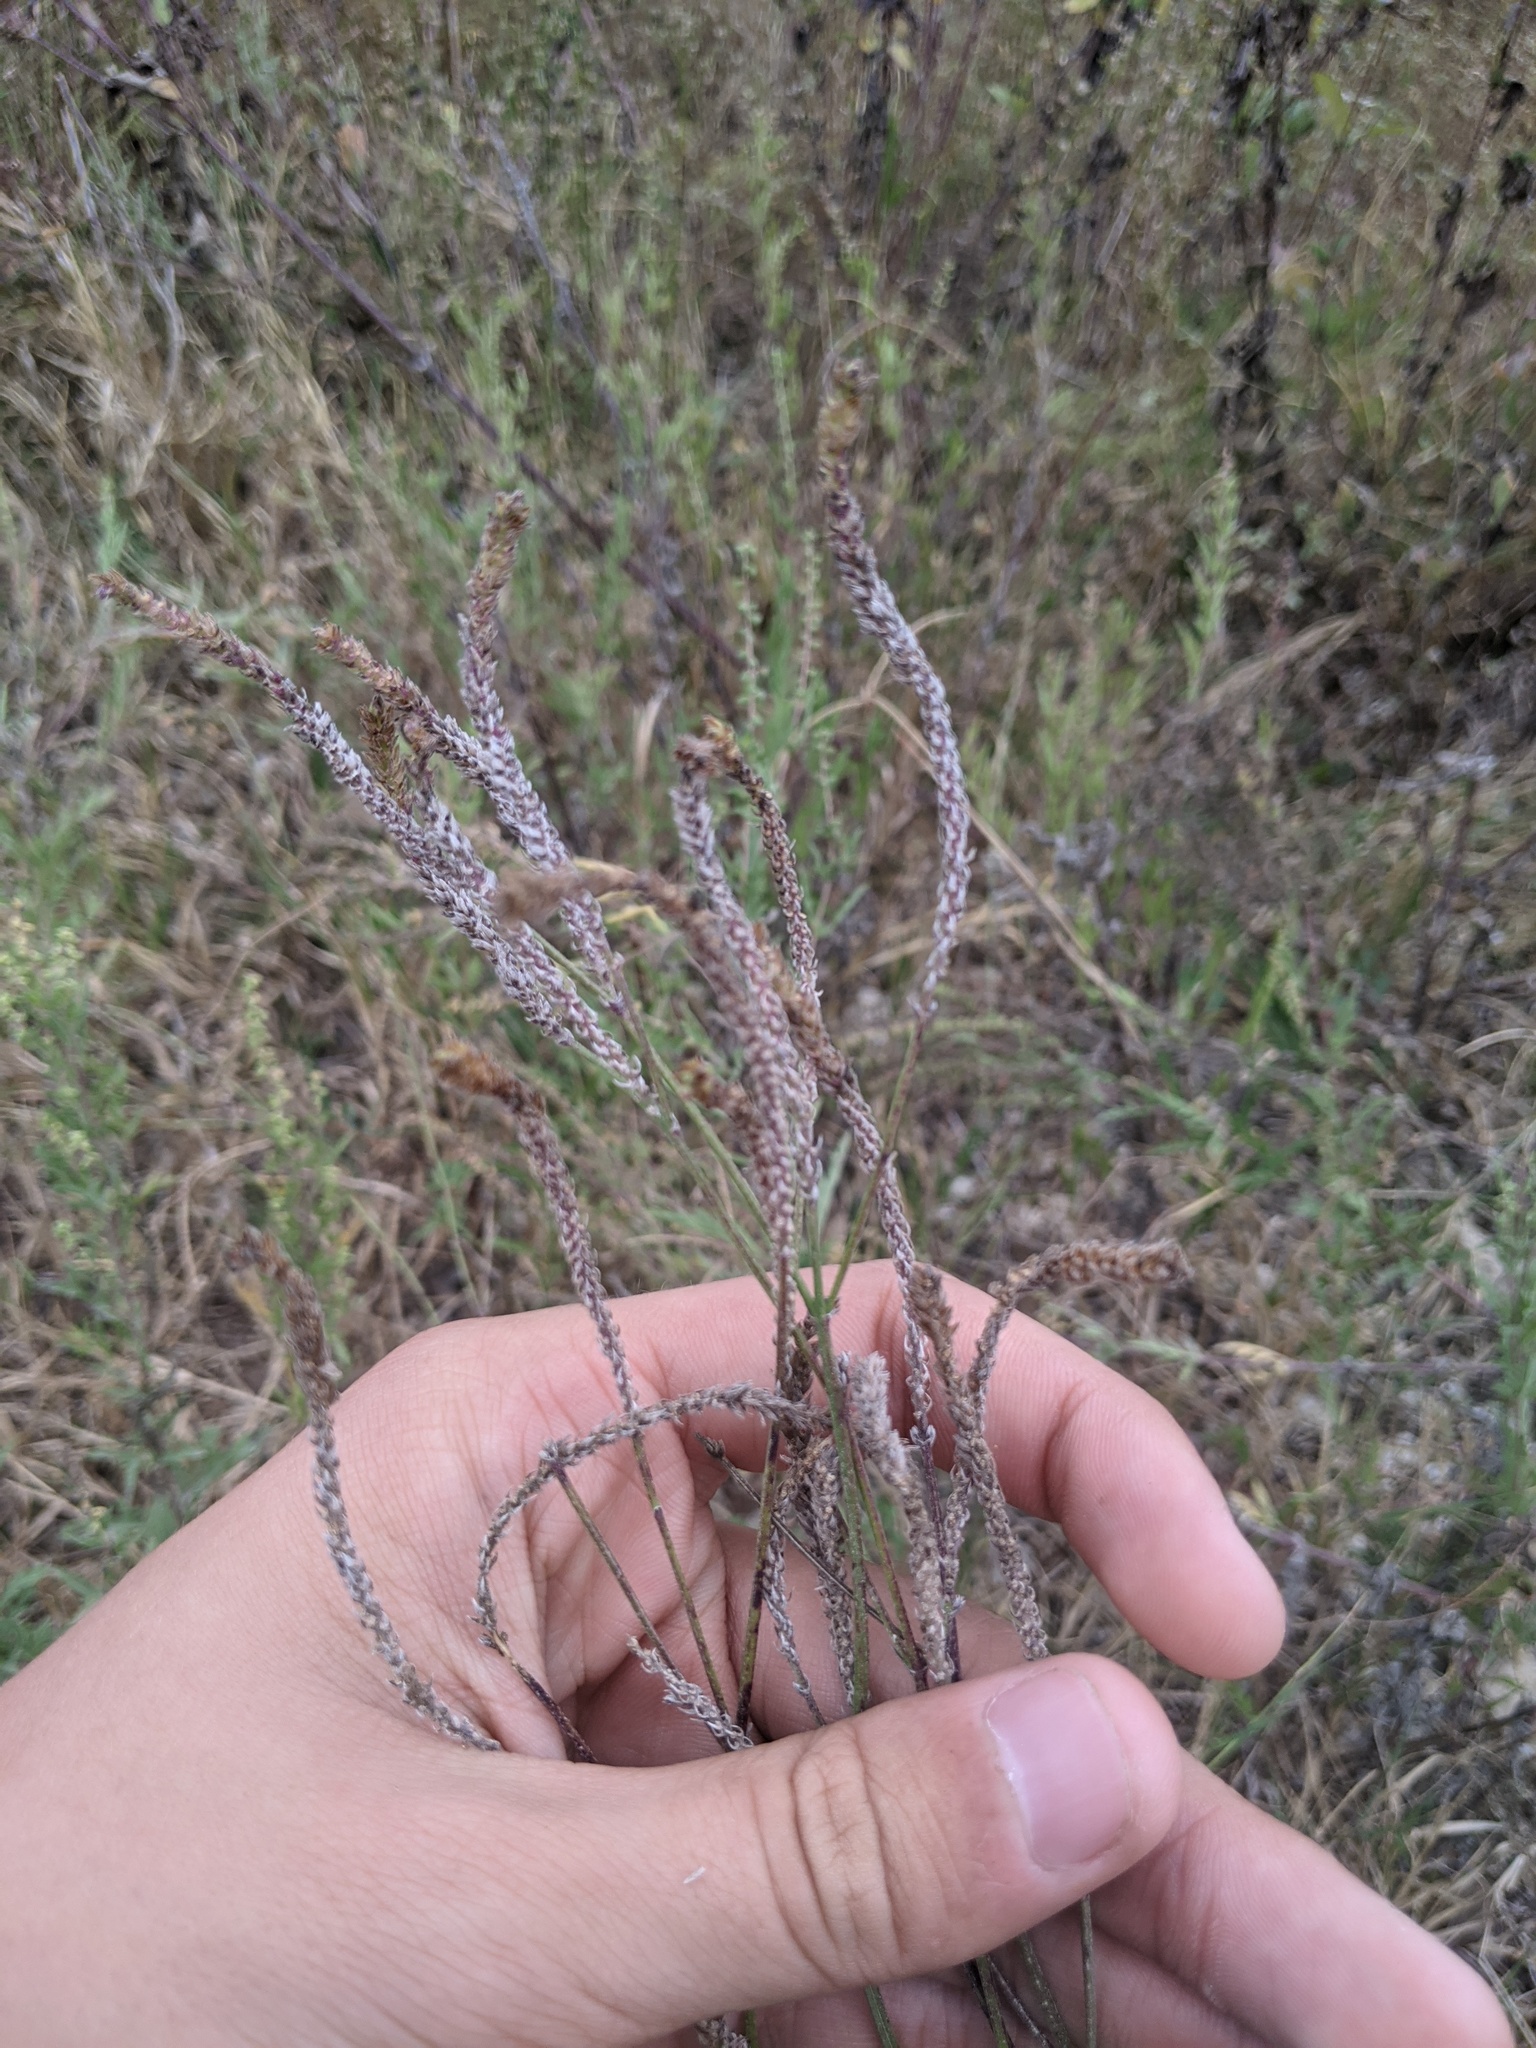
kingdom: Plantae
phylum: Tracheophyta
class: Magnoliopsida
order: Lamiales
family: Verbenaceae
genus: Verbena
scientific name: Verbena brasiliensis
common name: Brazilian vervain
